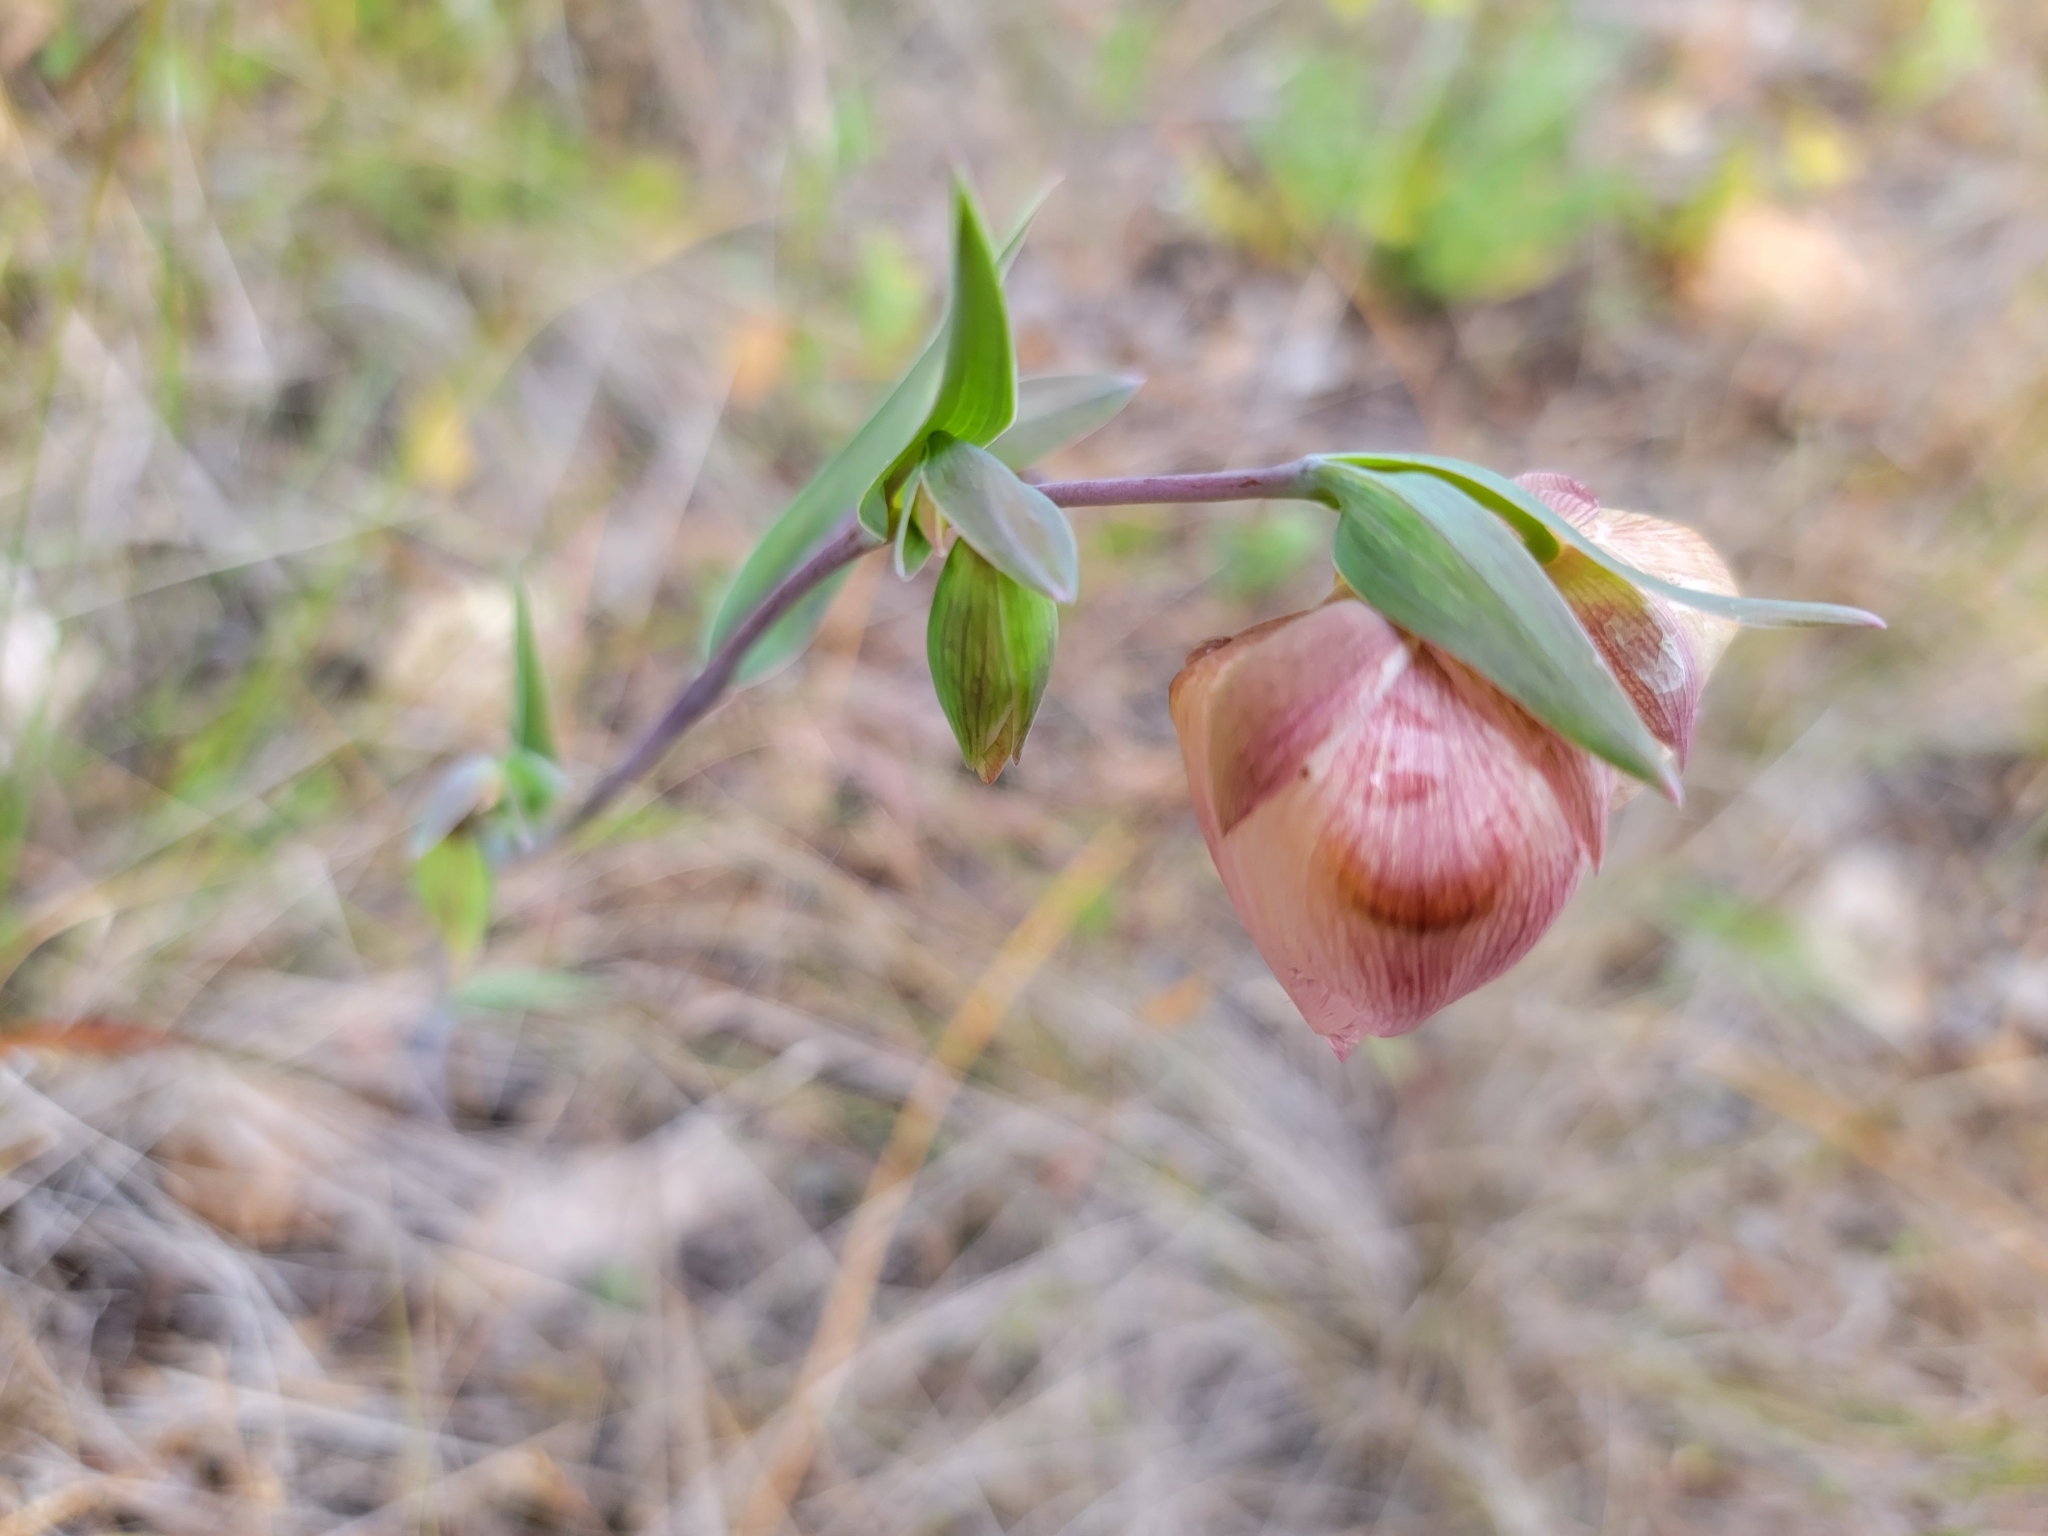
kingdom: Plantae
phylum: Tracheophyta
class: Liliopsida
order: Liliales
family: Liliaceae
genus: Calochortus
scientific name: Calochortus albus
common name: Fairy-lantern
